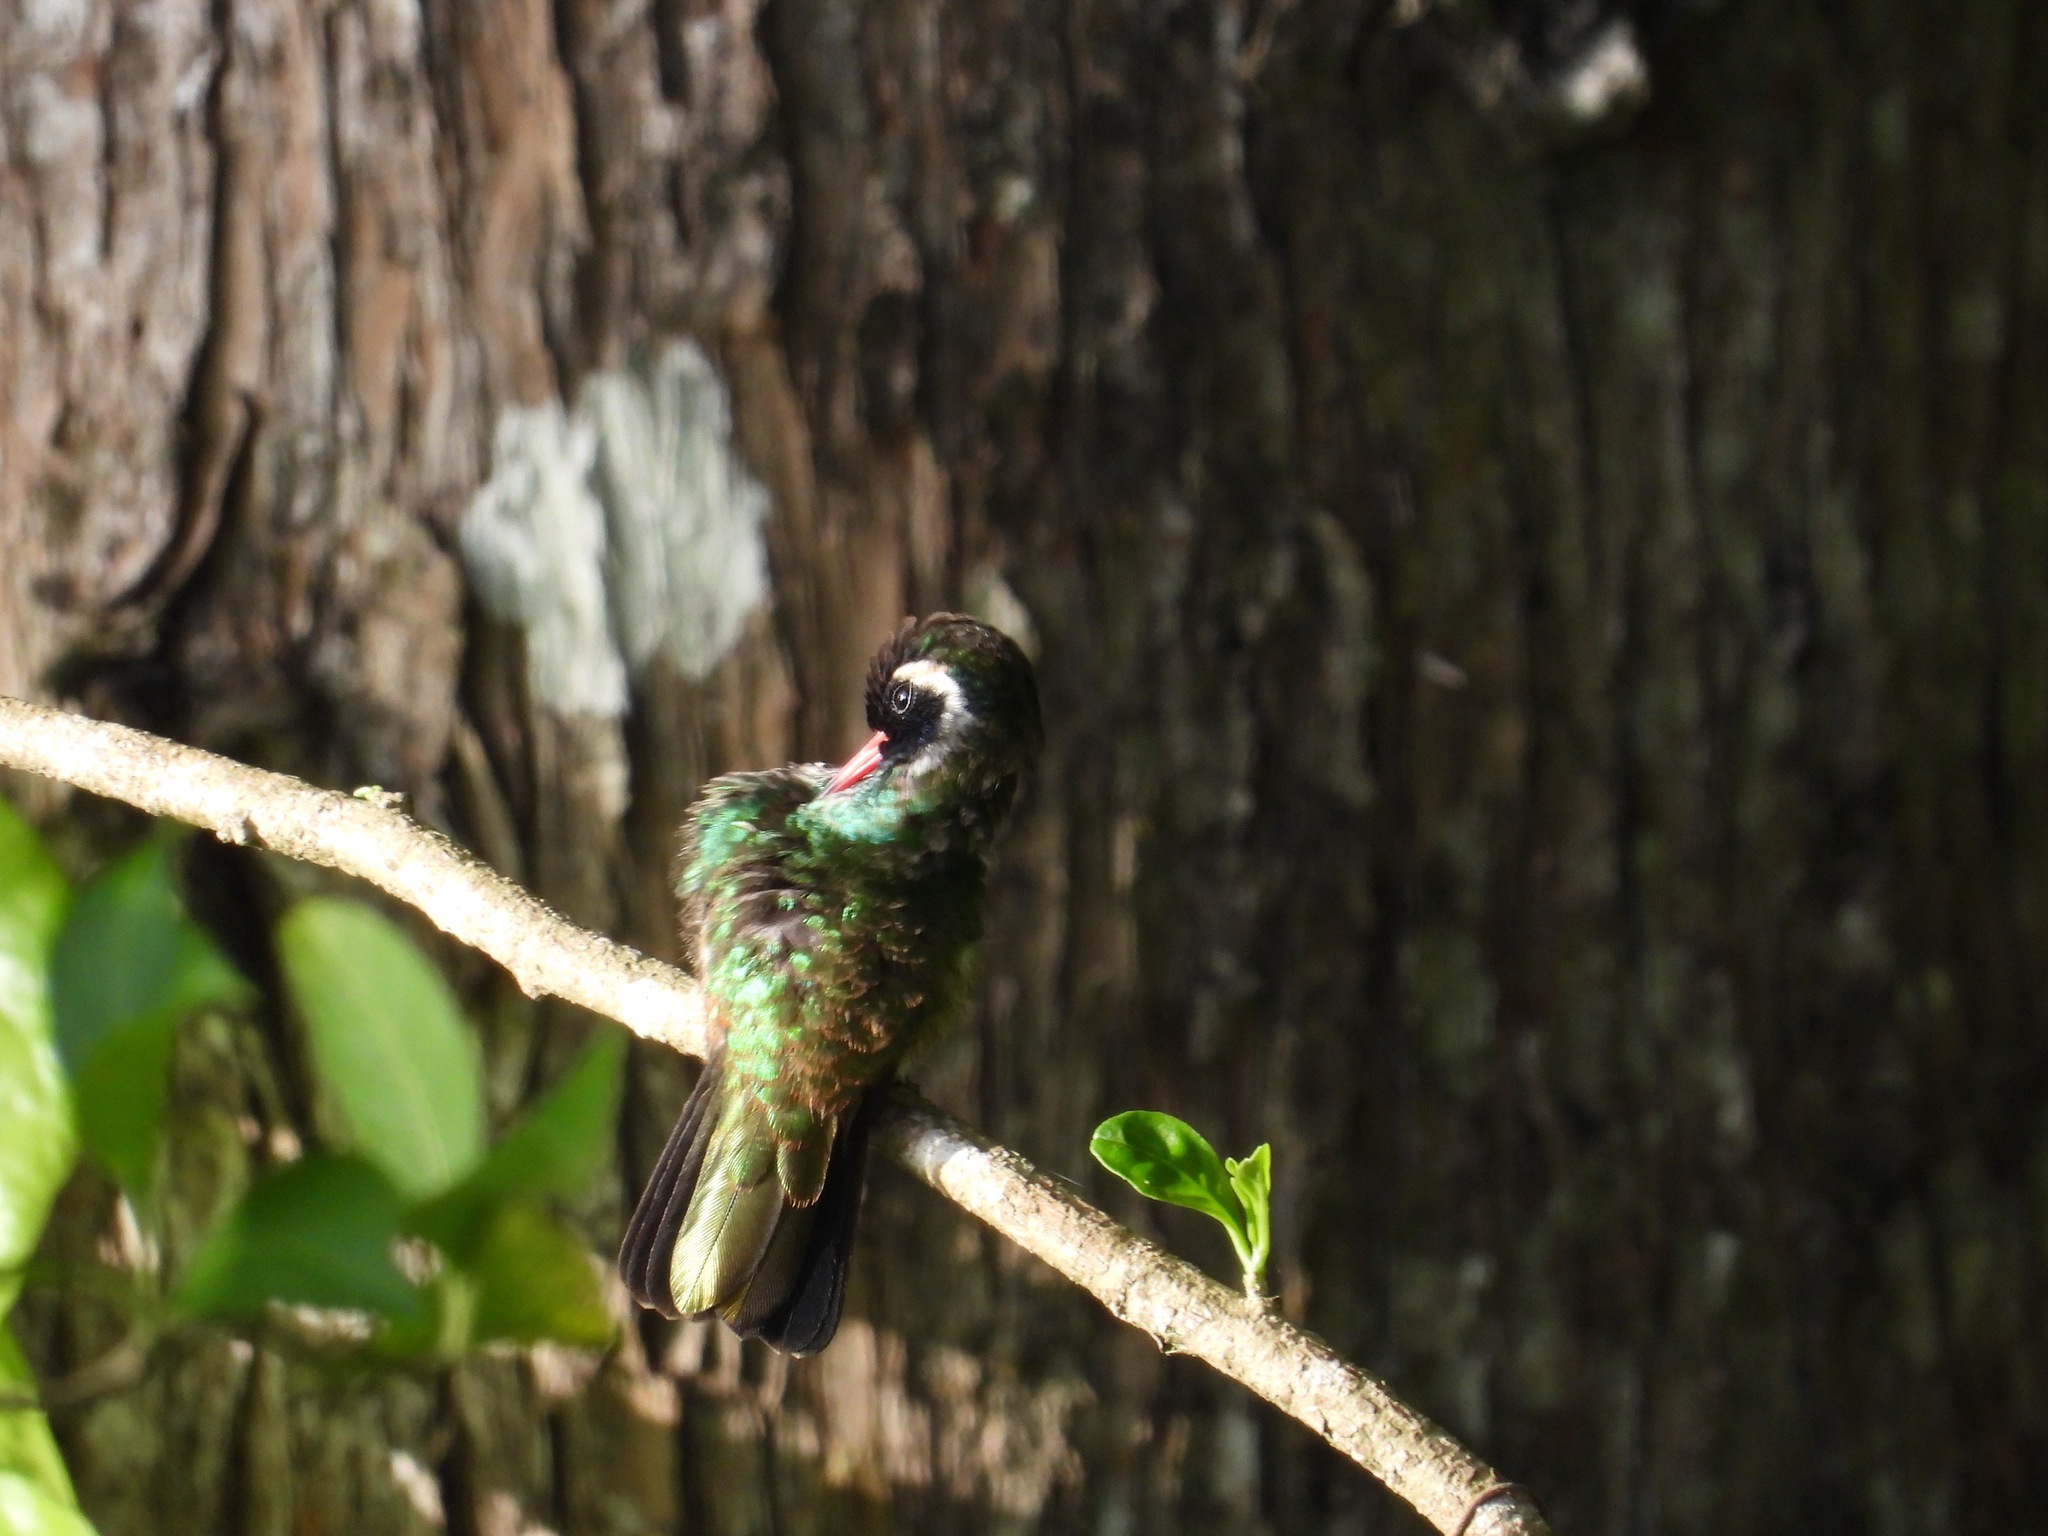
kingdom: Animalia
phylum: Chordata
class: Aves
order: Apodiformes
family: Trochilidae
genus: Basilinna
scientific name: Basilinna leucotis
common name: White-eared hummingbird
